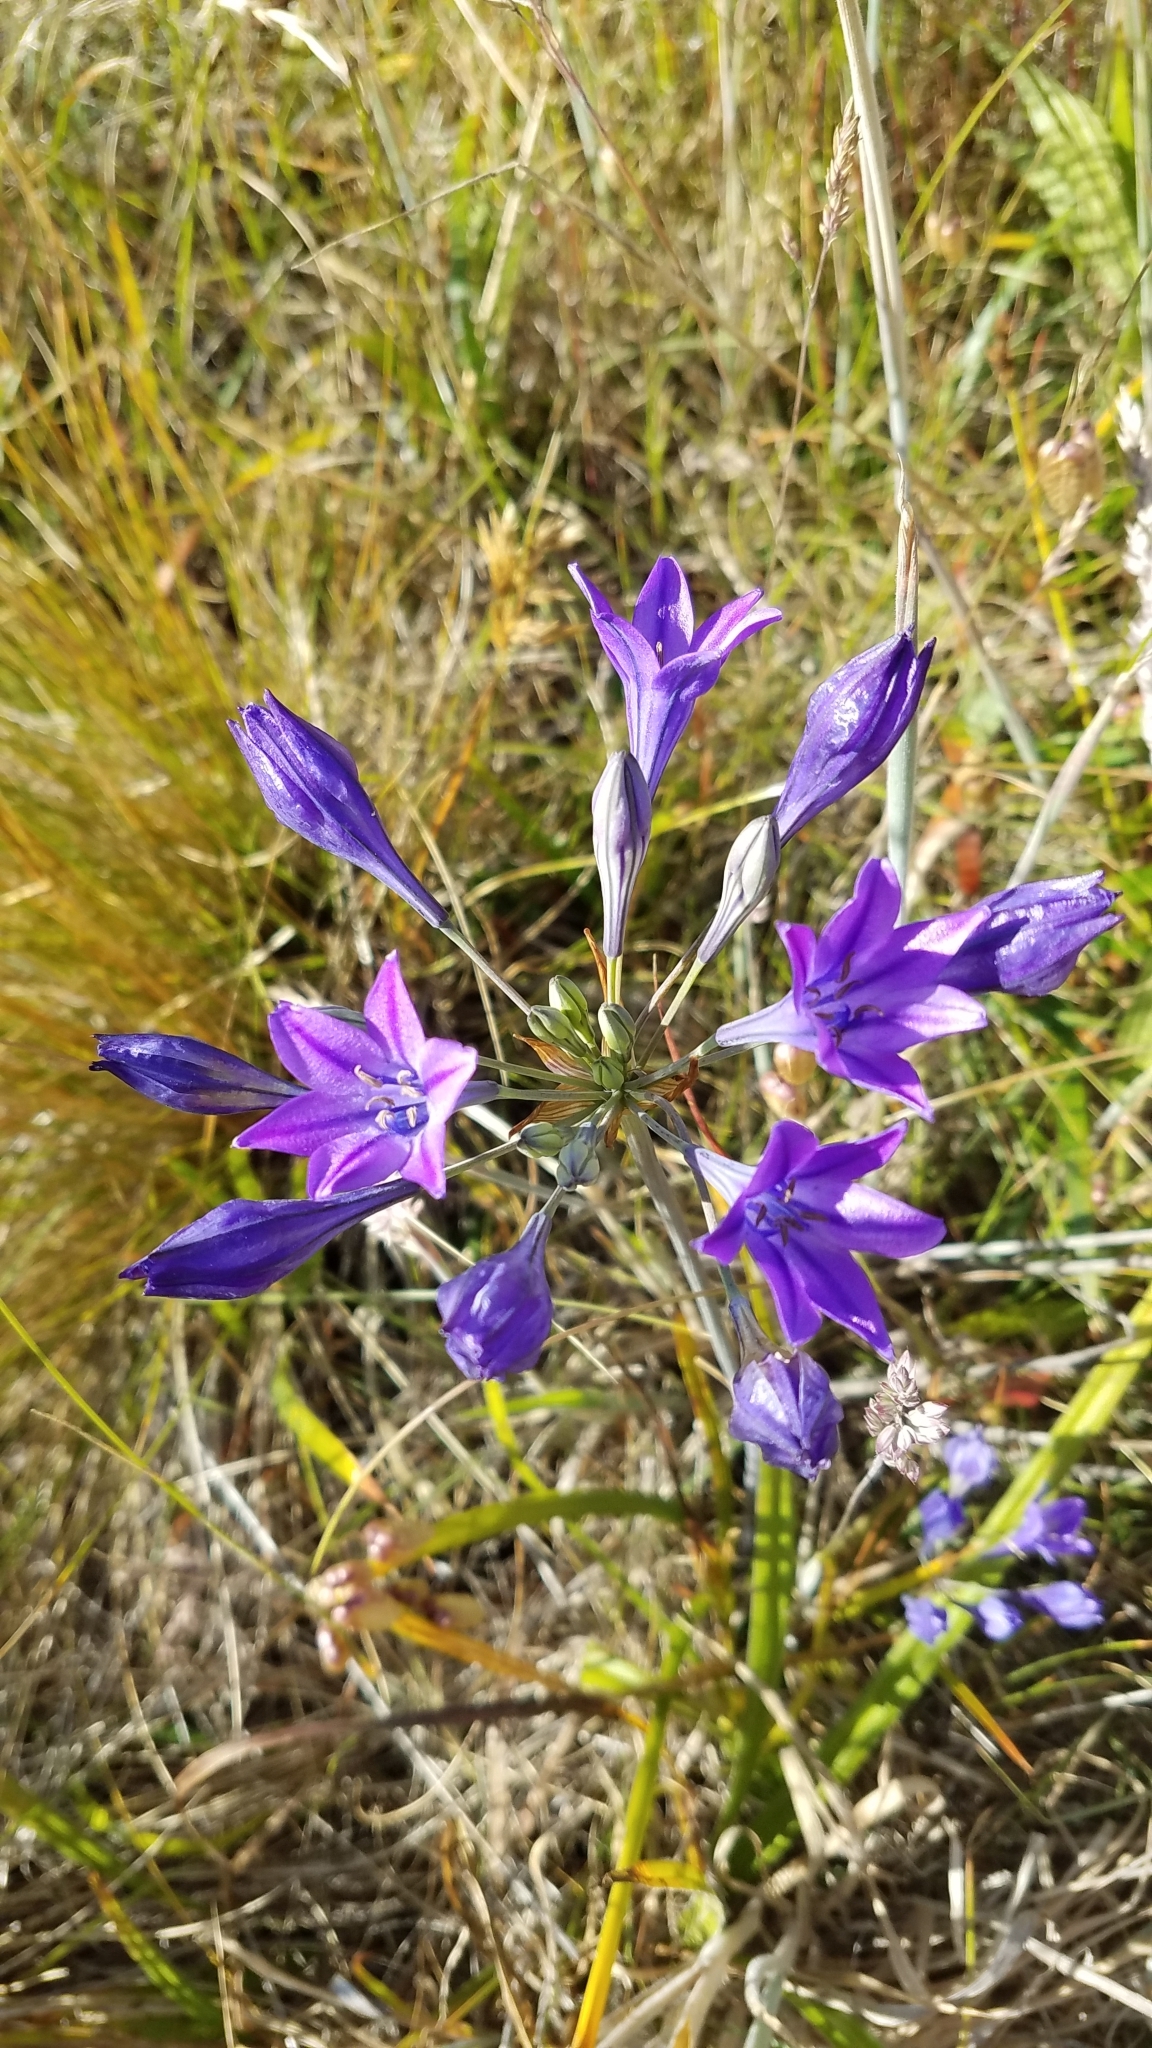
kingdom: Plantae
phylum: Tracheophyta
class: Liliopsida
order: Asparagales
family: Asparagaceae
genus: Triteleia
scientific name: Triteleia laxa
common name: Triplet-lily
